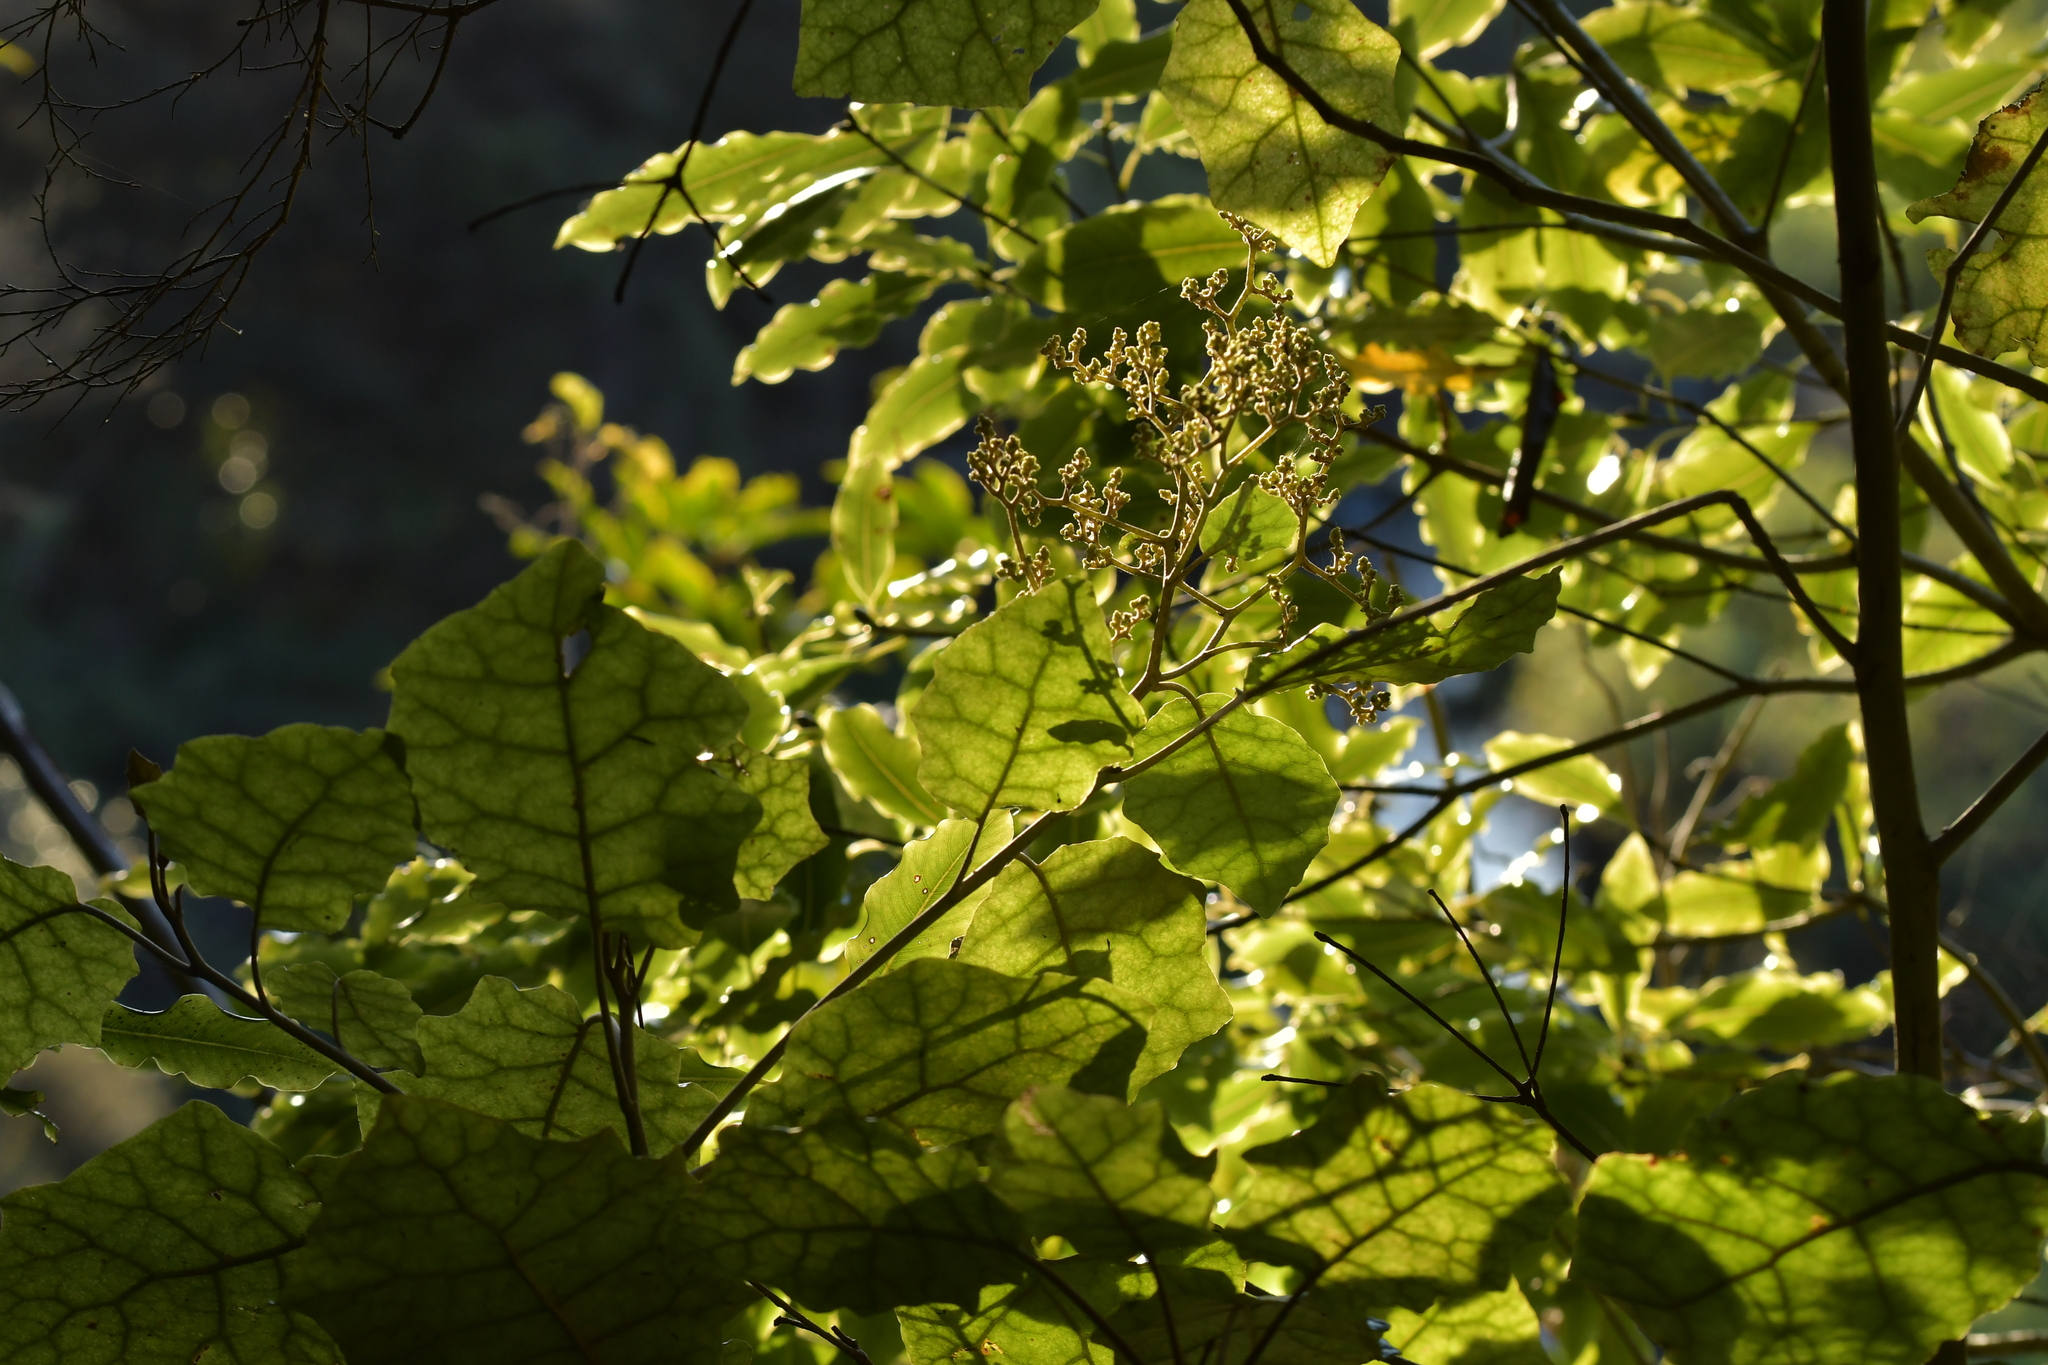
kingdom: Plantae
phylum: Tracheophyta
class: Magnoliopsida
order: Asterales
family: Asteraceae
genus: Brachyglottis
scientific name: Brachyglottis repanda
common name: Hedge ragwort
